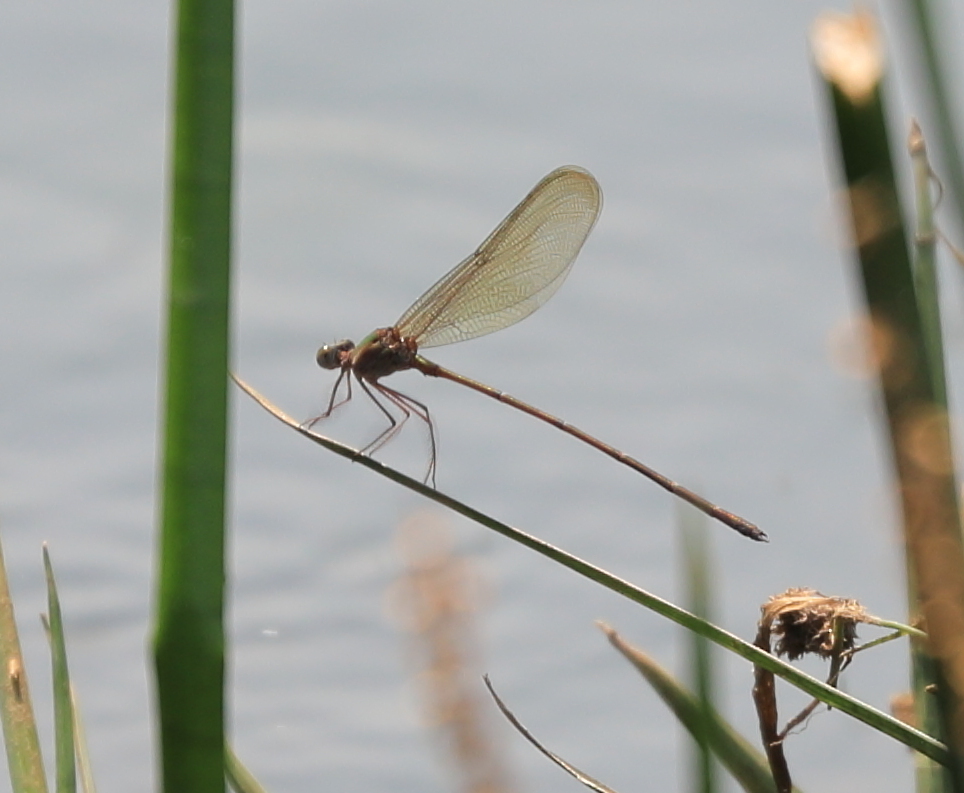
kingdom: Animalia
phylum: Arthropoda
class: Insecta
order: Odonata
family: Calopterygidae
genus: Phaon
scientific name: Phaon iridipennis
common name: Glistening demoiselle
